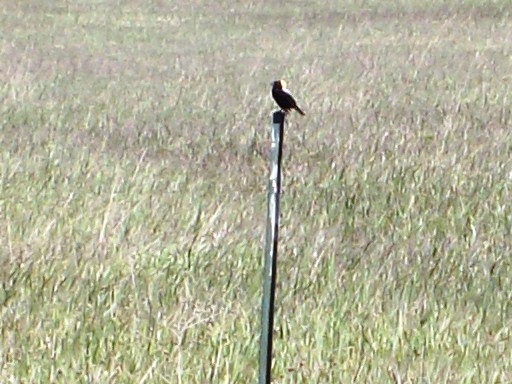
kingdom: Animalia
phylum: Chordata
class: Aves
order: Passeriformes
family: Icteridae
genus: Dolichonyx
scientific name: Dolichonyx oryzivorus
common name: Bobolink
